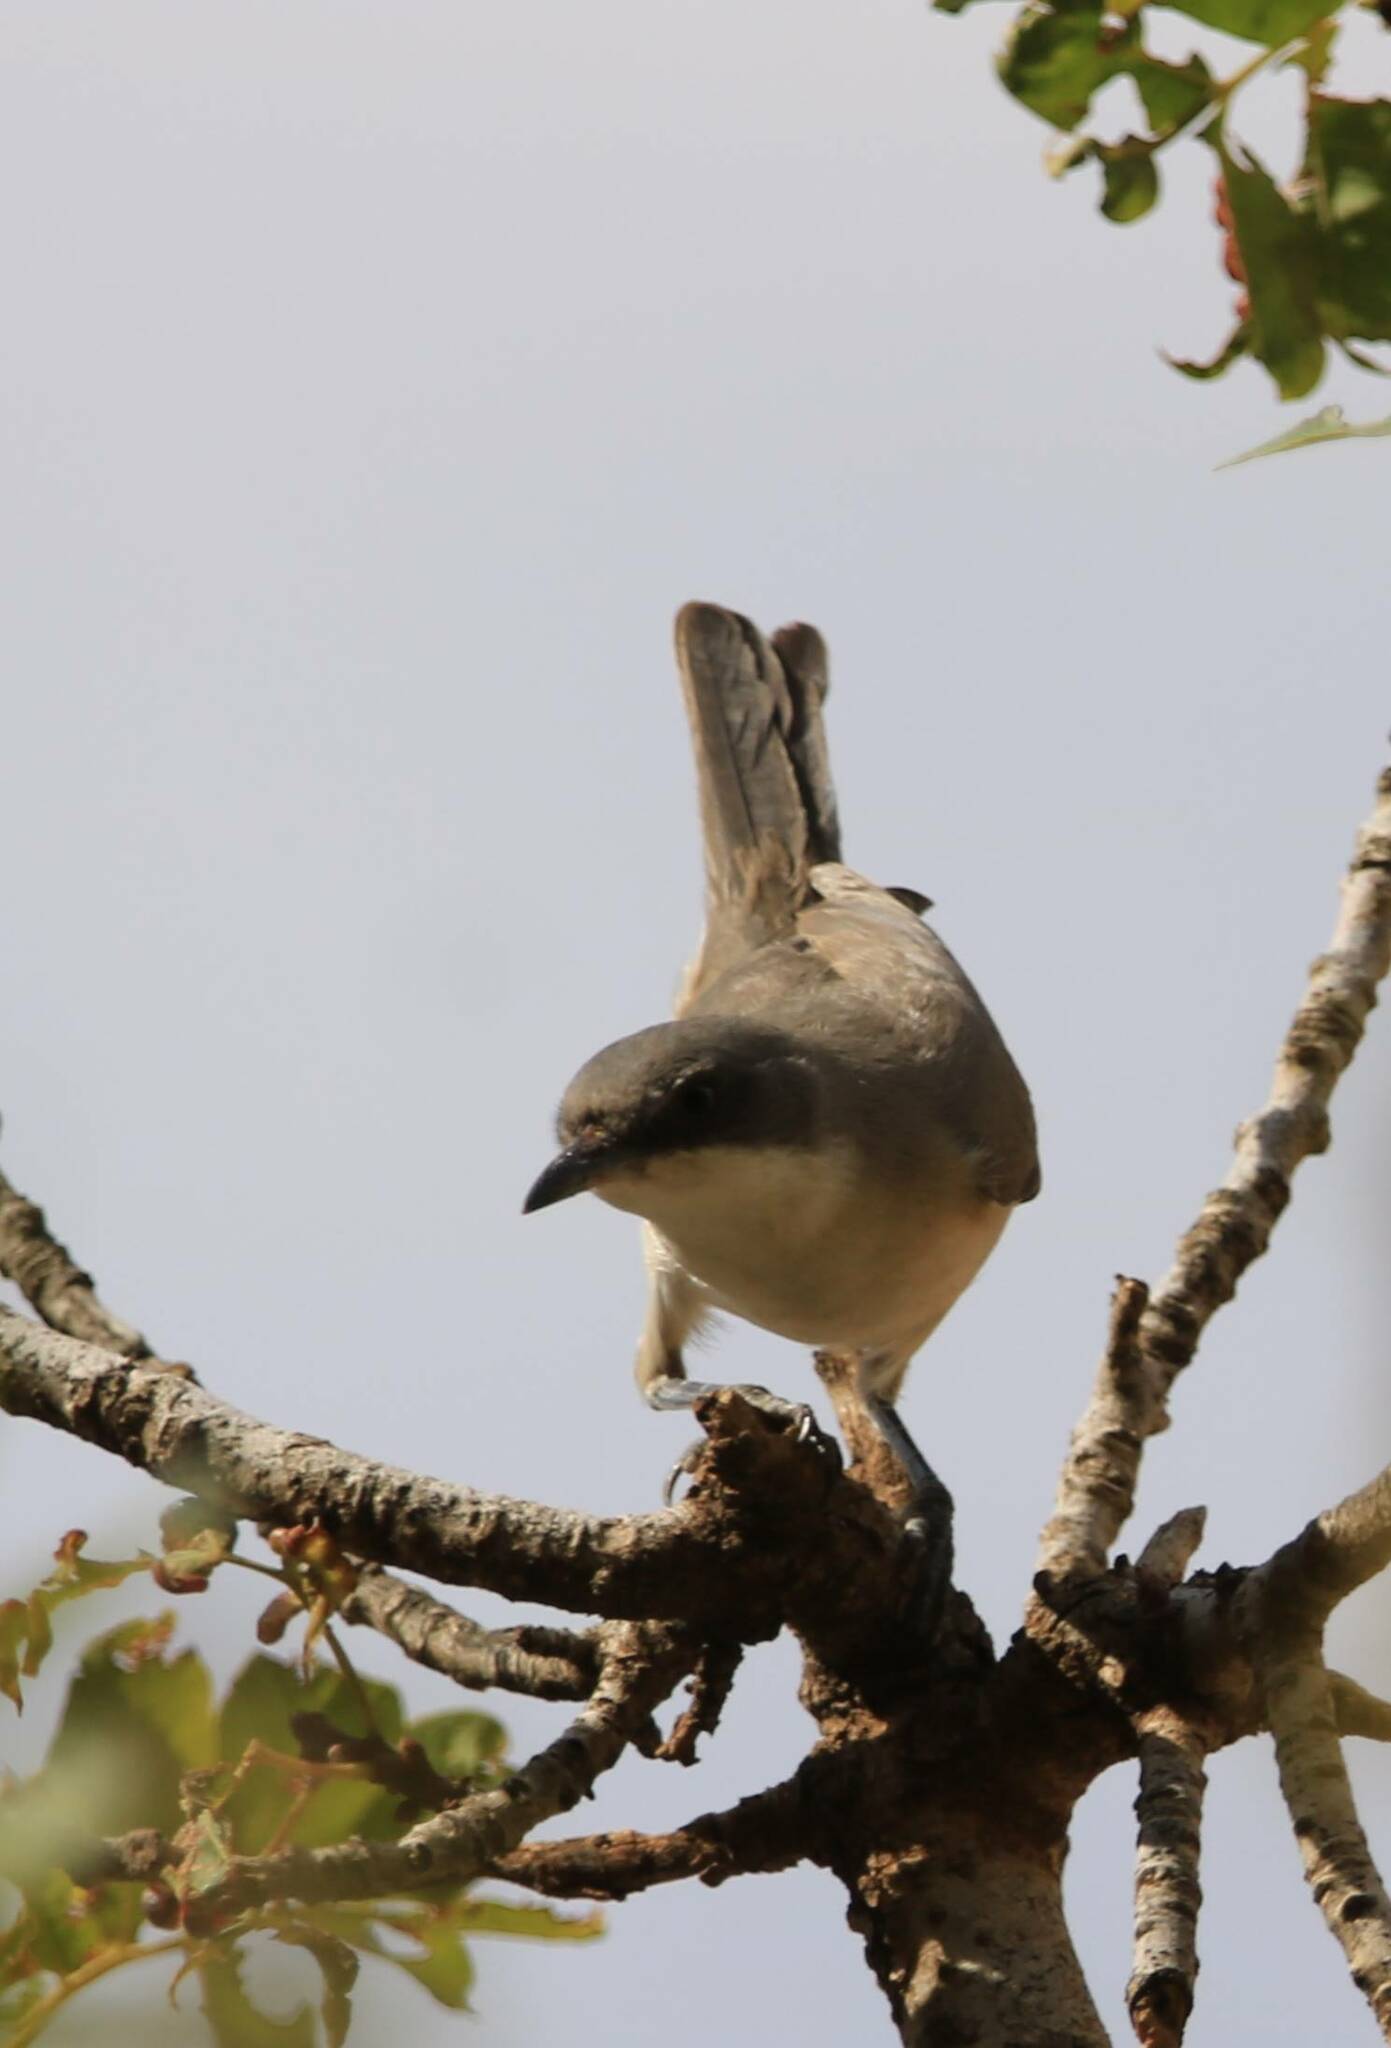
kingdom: Animalia
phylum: Chordata
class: Aves
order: Passeriformes
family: Sylviidae
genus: Sylvia
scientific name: Sylvia hortensis
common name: Orphean warbler
